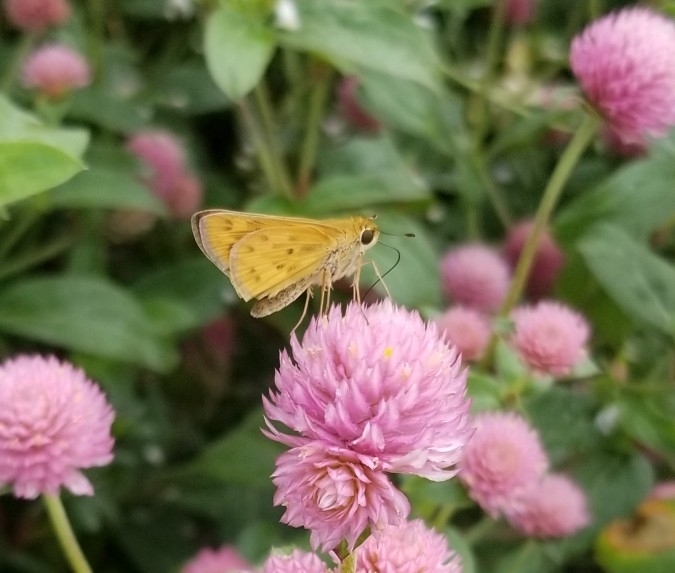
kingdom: Animalia
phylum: Arthropoda
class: Insecta
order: Lepidoptera
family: Hesperiidae
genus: Hylephila
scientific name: Hylephila phyleus
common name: Fiery skipper
